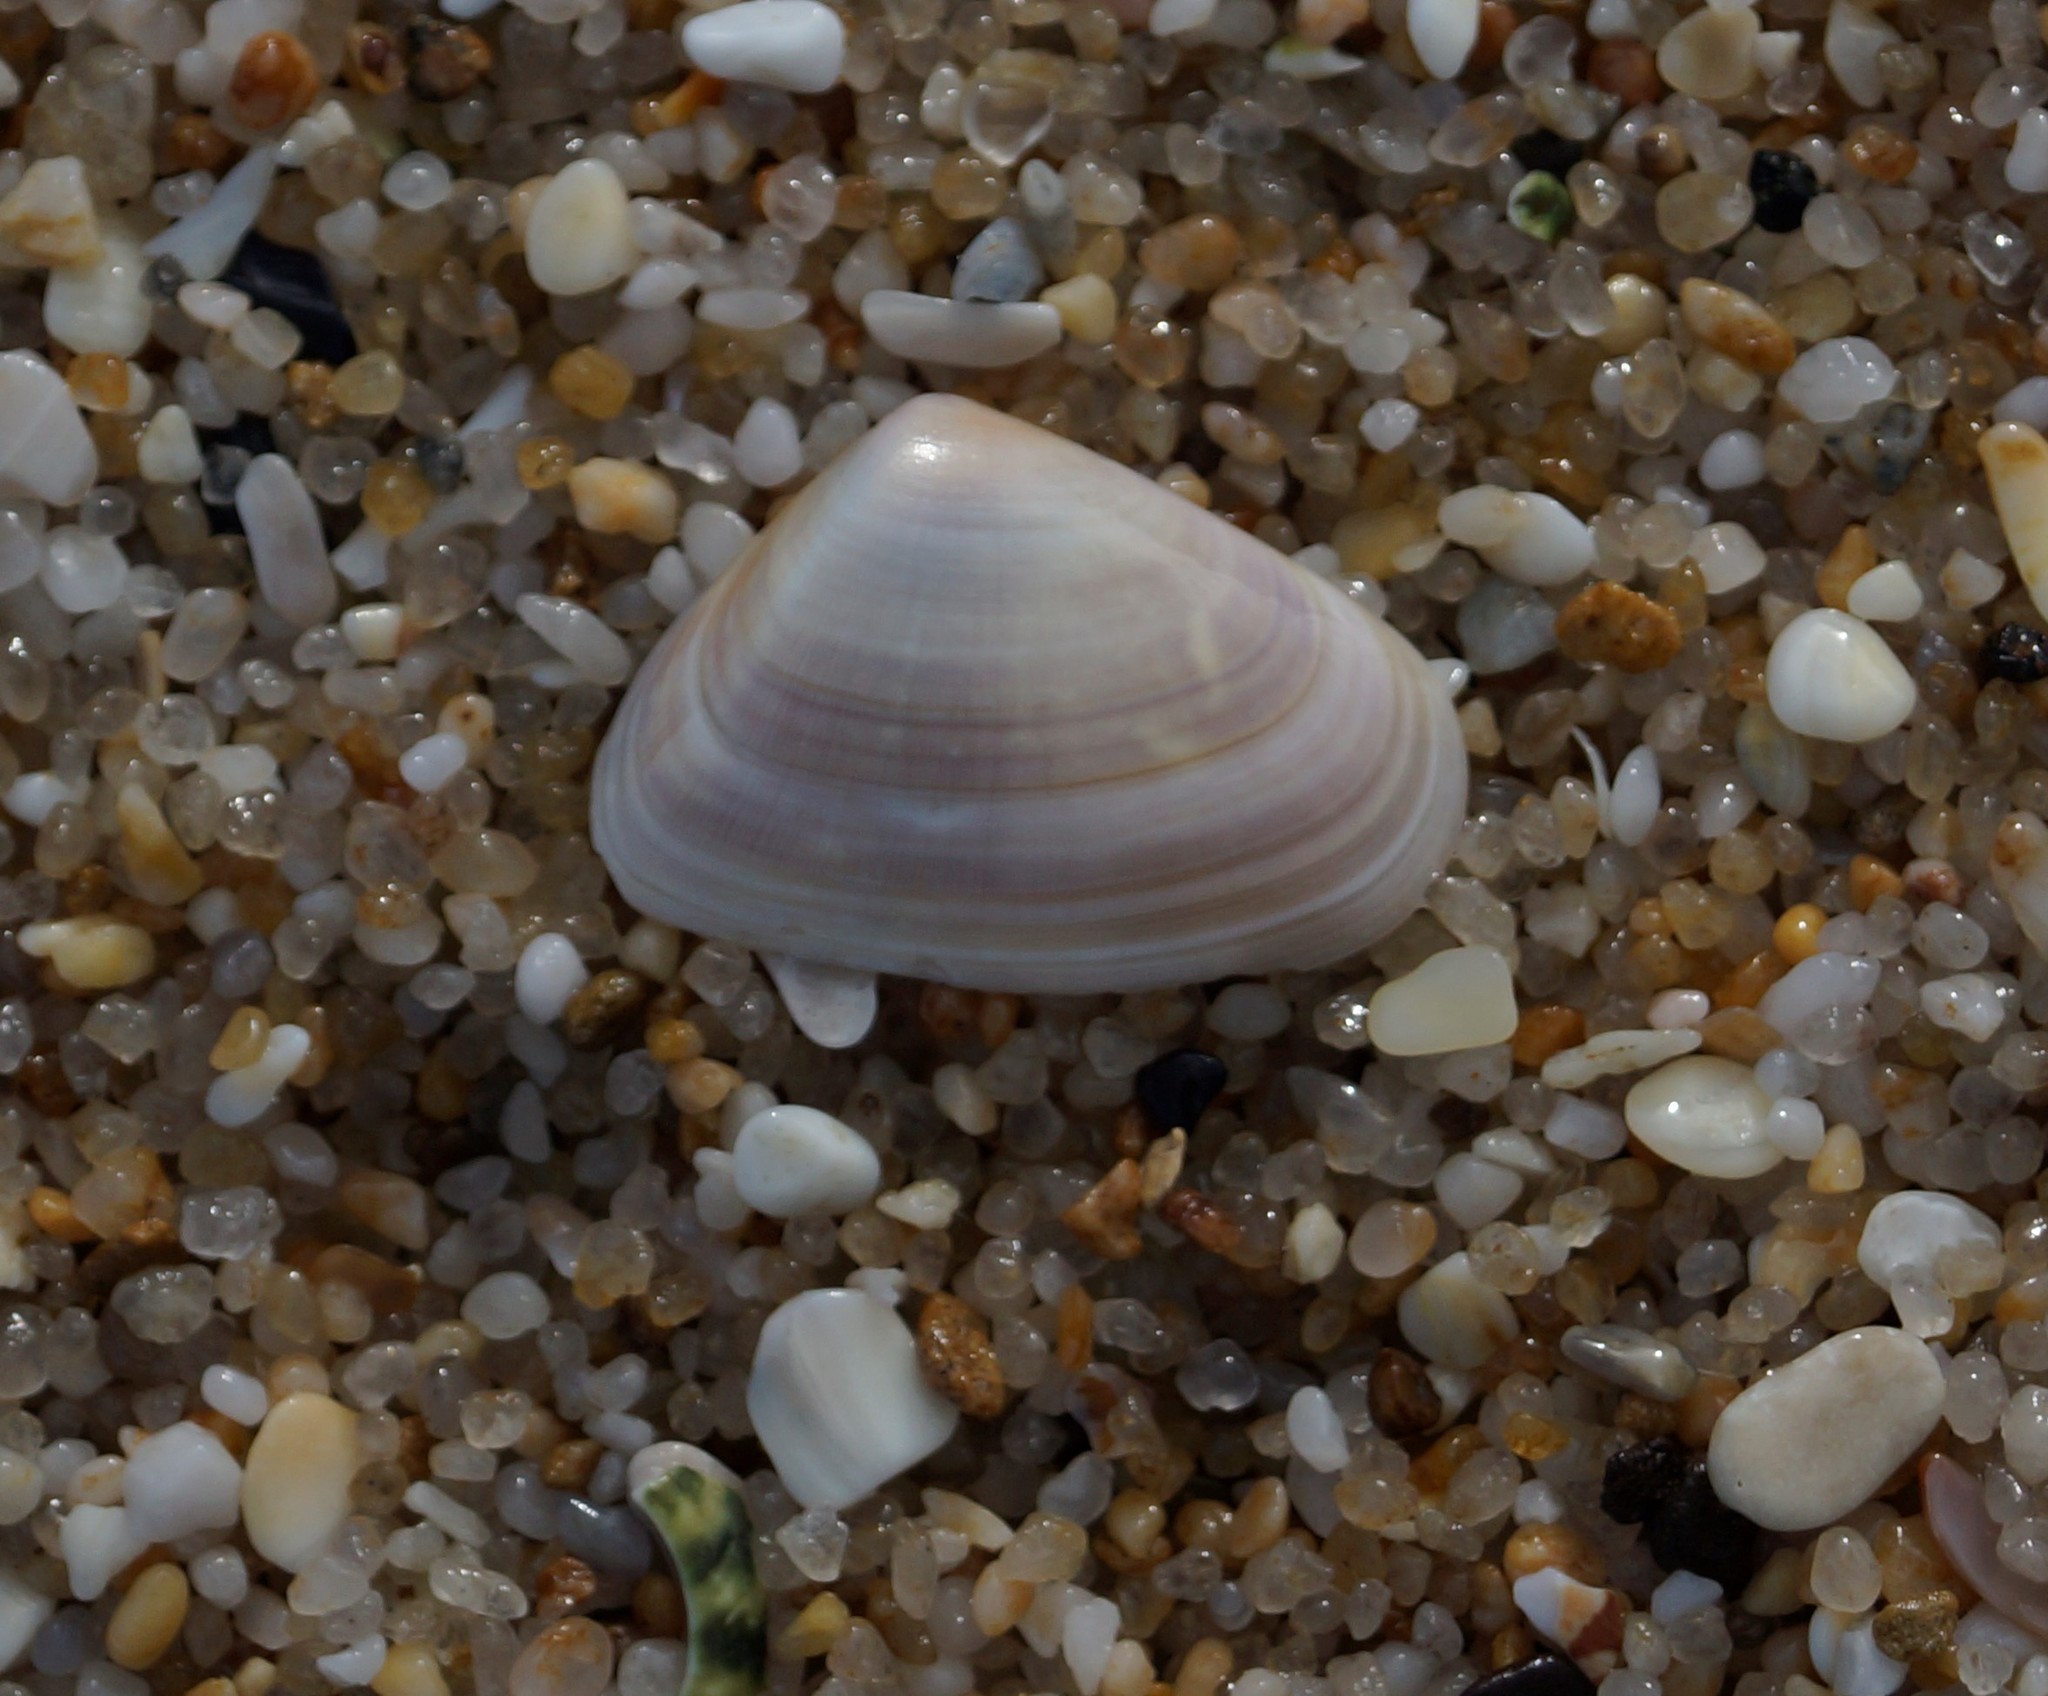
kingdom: Animalia
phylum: Mollusca
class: Bivalvia
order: Cardiida
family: Donacidae
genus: Latona
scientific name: Latona deltoides
